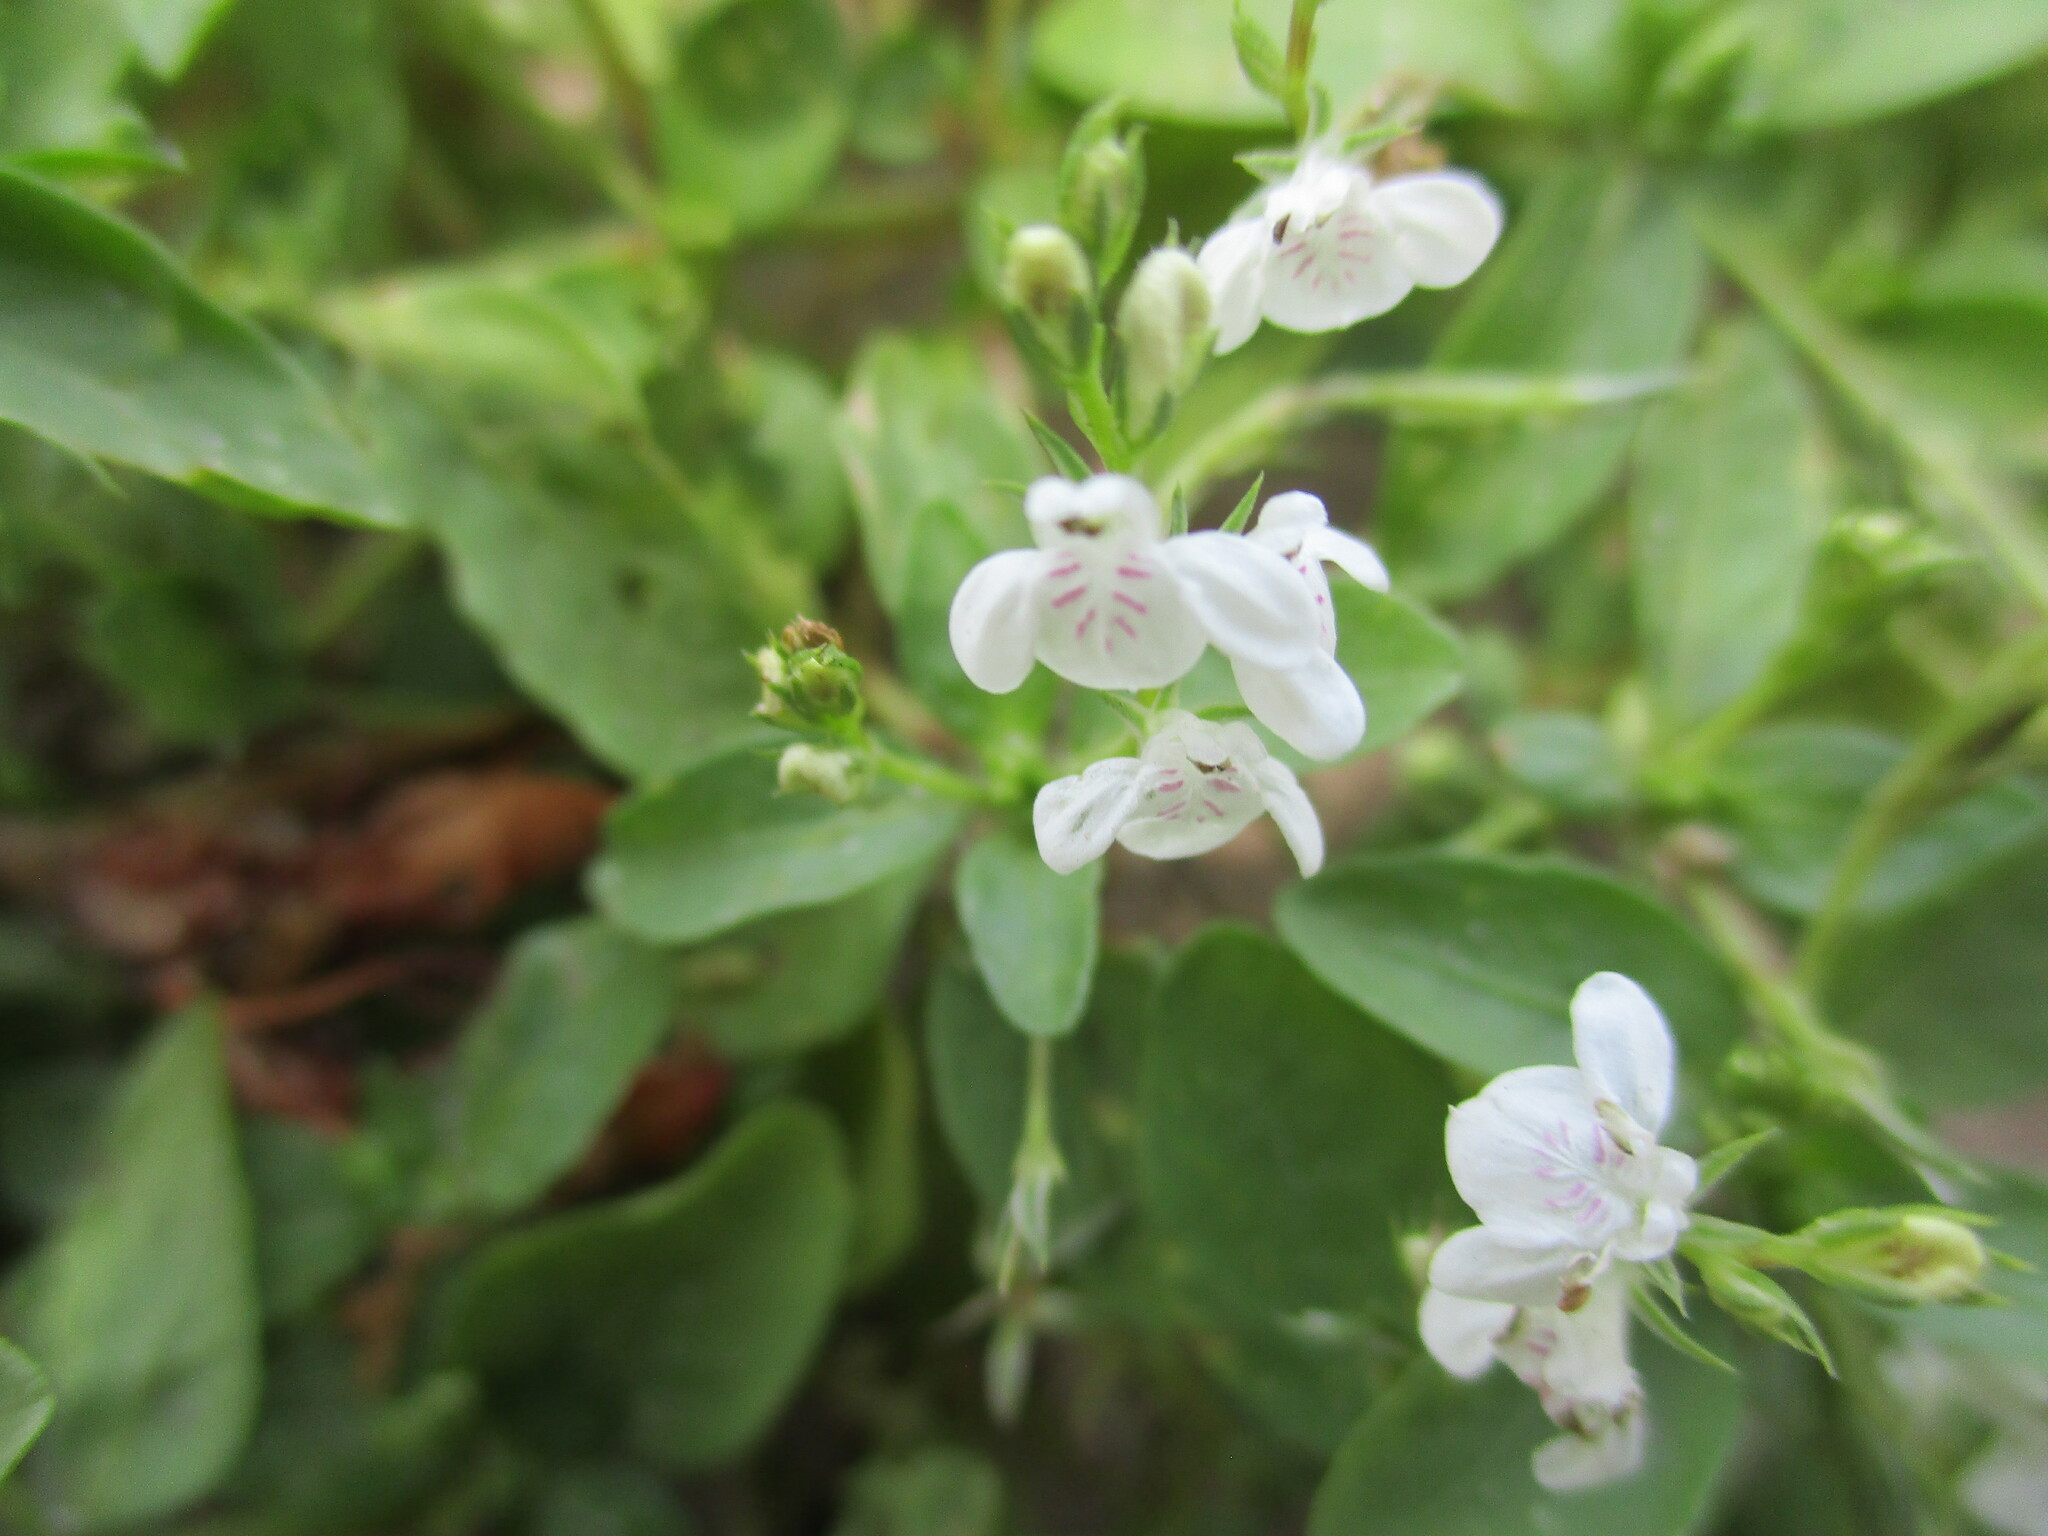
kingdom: Plantae
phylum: Tracheophyta
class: Magnoliopsida
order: Lamiales
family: Acanthaceae
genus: Justicia
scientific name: Justicia exigua
